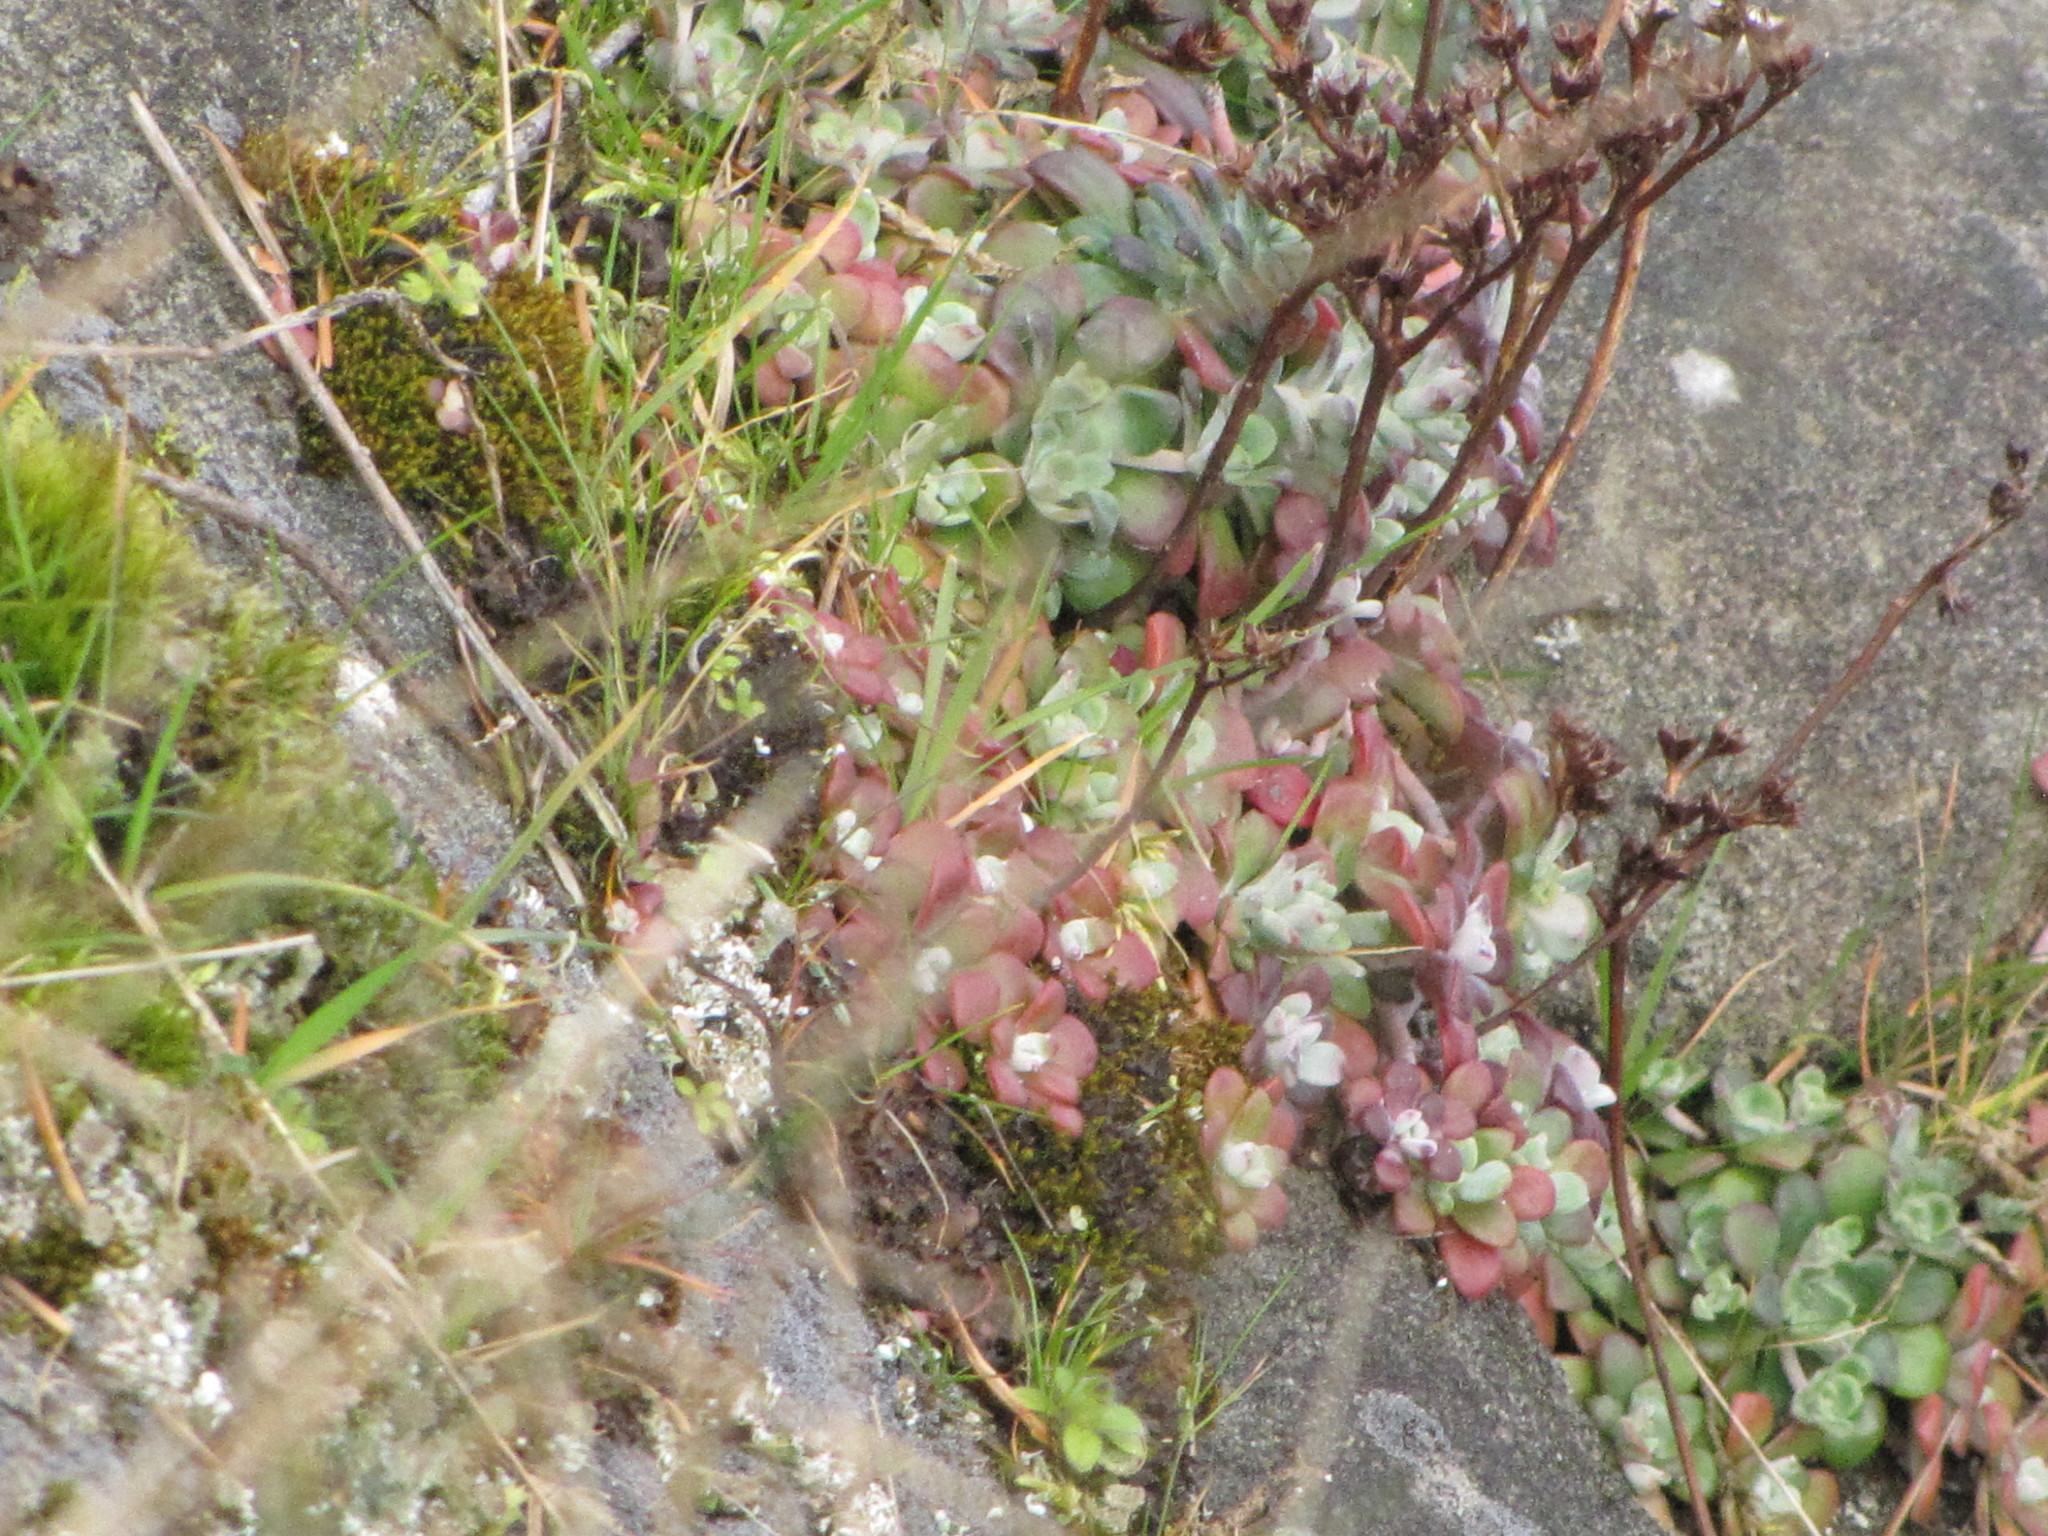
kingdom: Plantae
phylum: Tracheophyta
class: Magnoliopsida
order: Saxifragales
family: Crassulaceae
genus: Sedum
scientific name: Sedum spathulifolium
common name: Colorado stonecrop
